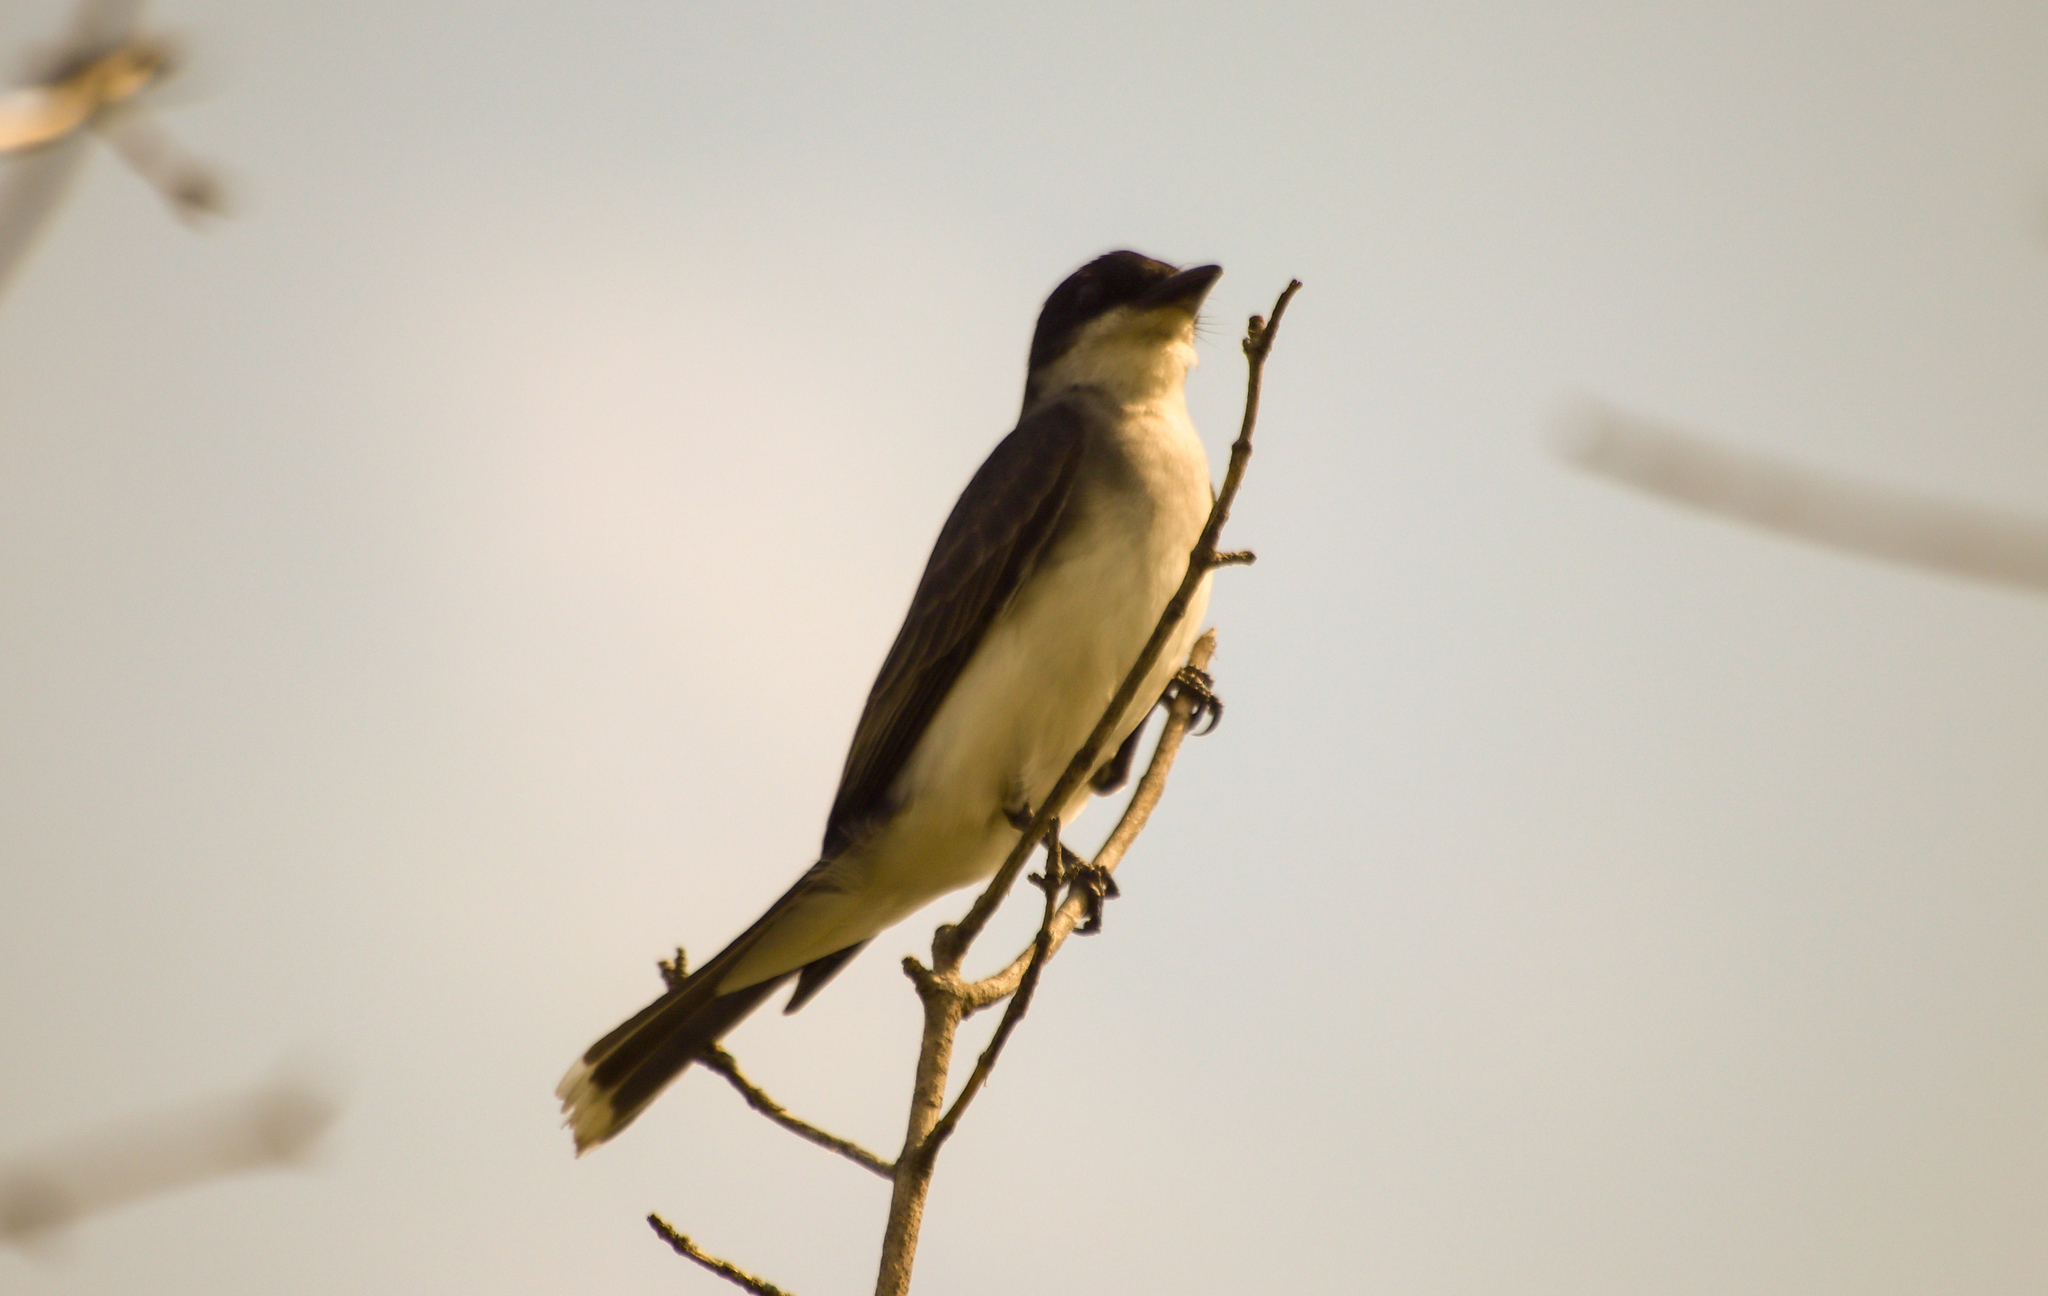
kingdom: Animalia
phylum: Chordata
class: Aves
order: Passeriformes
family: Tyrannidae
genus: Tyrannus
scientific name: Tyrannus tyrannus
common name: Eastern kingbird
